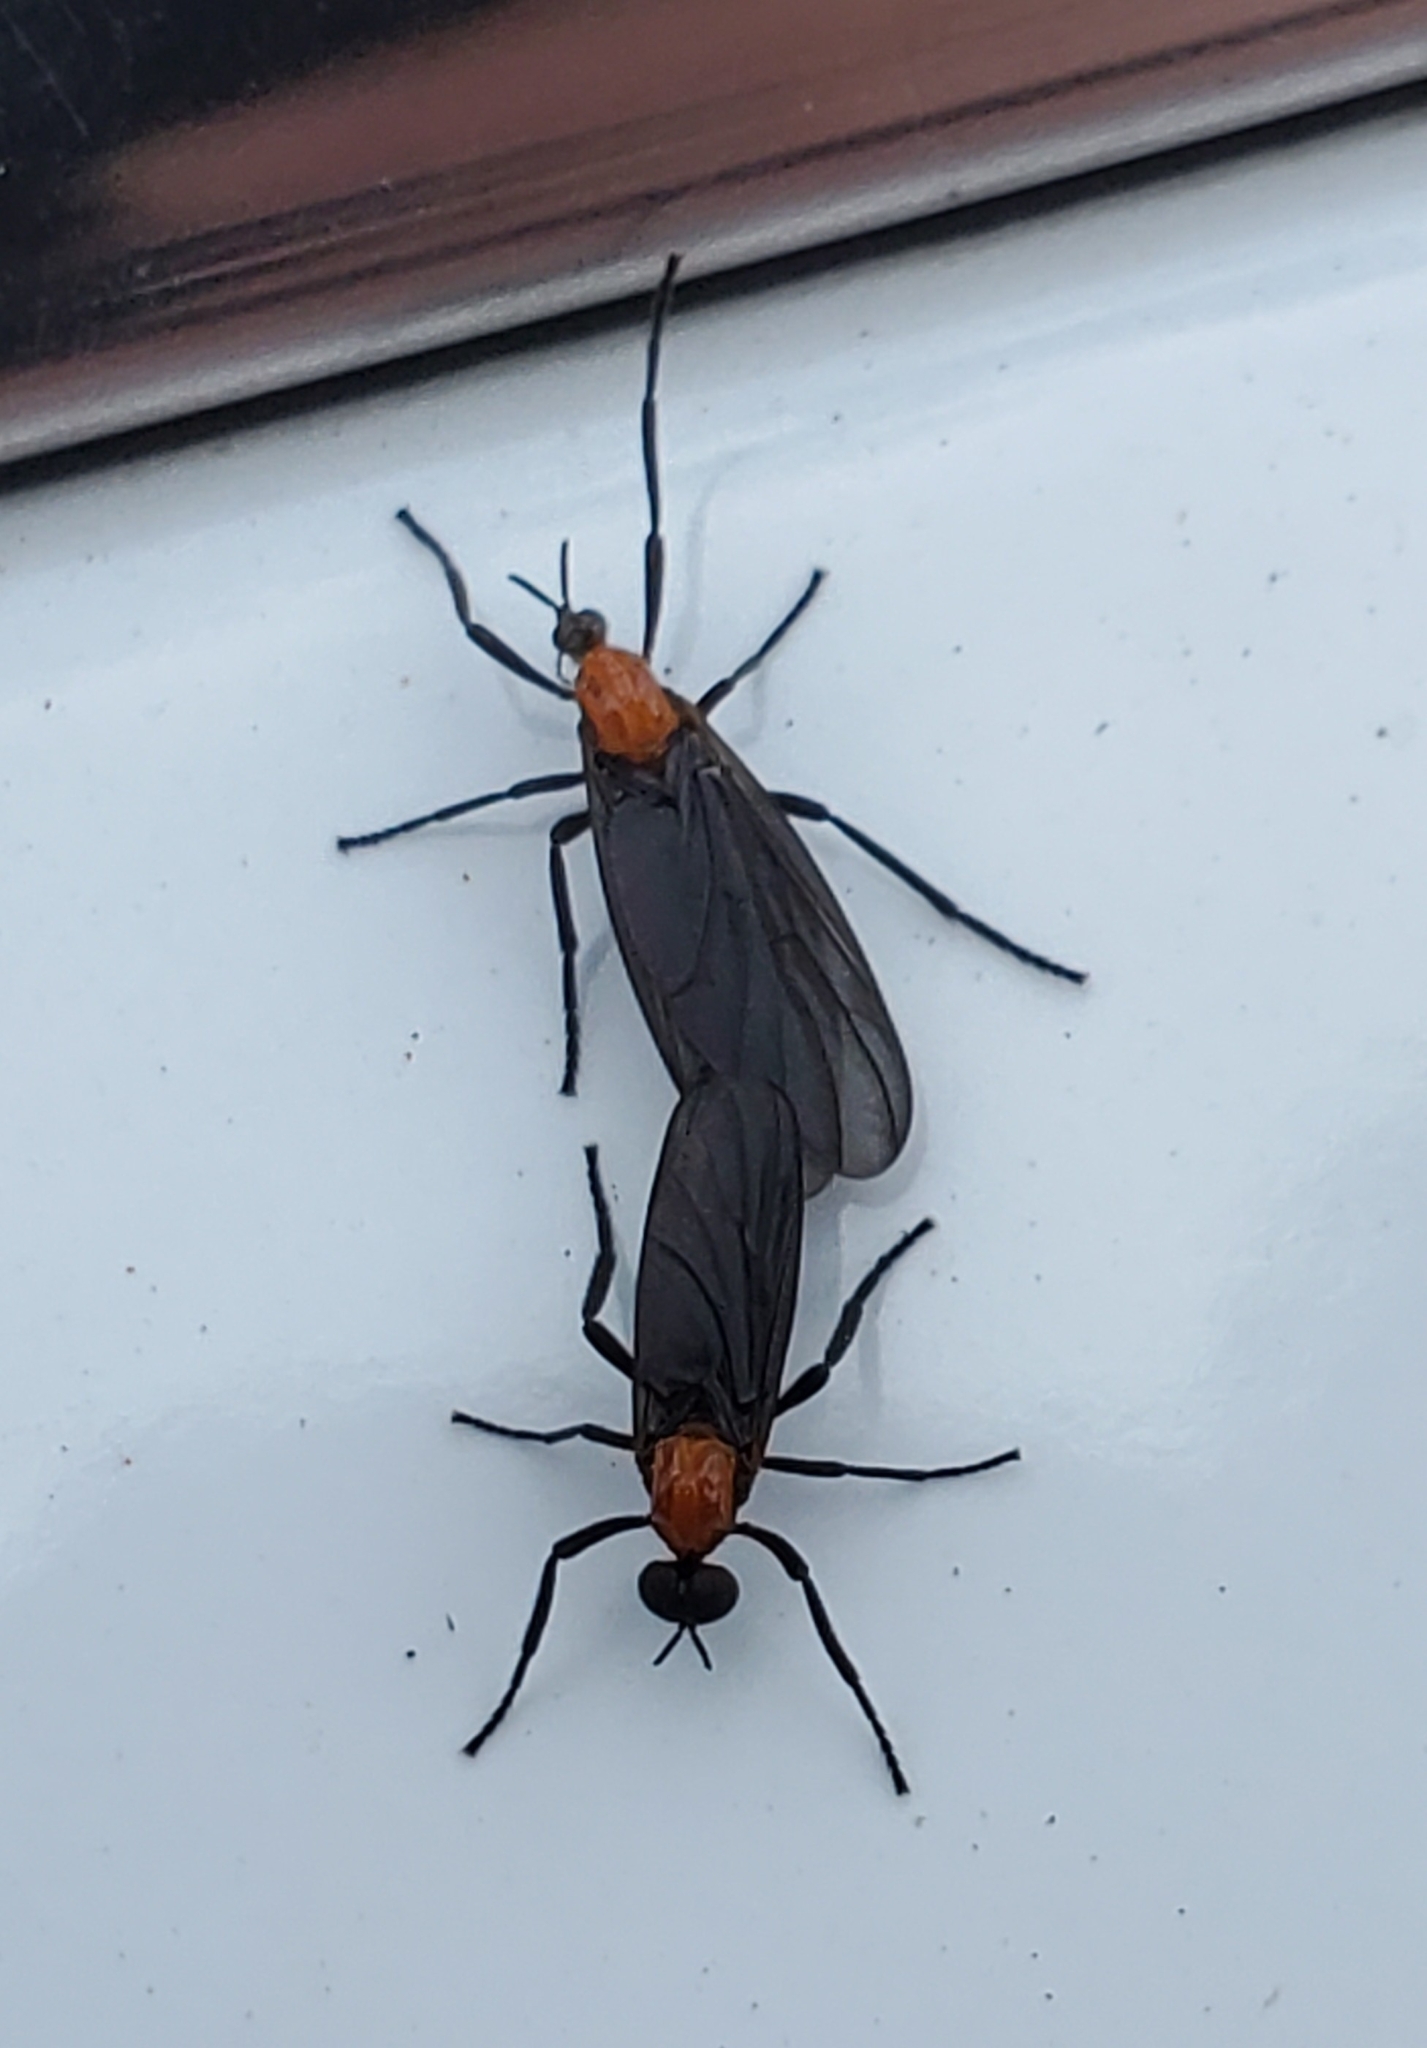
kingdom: Animalia
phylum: Arthropoda
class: Insecta
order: Diptera
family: Bibionidae
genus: Plecia
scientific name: Plecia nearctica
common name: March fly
